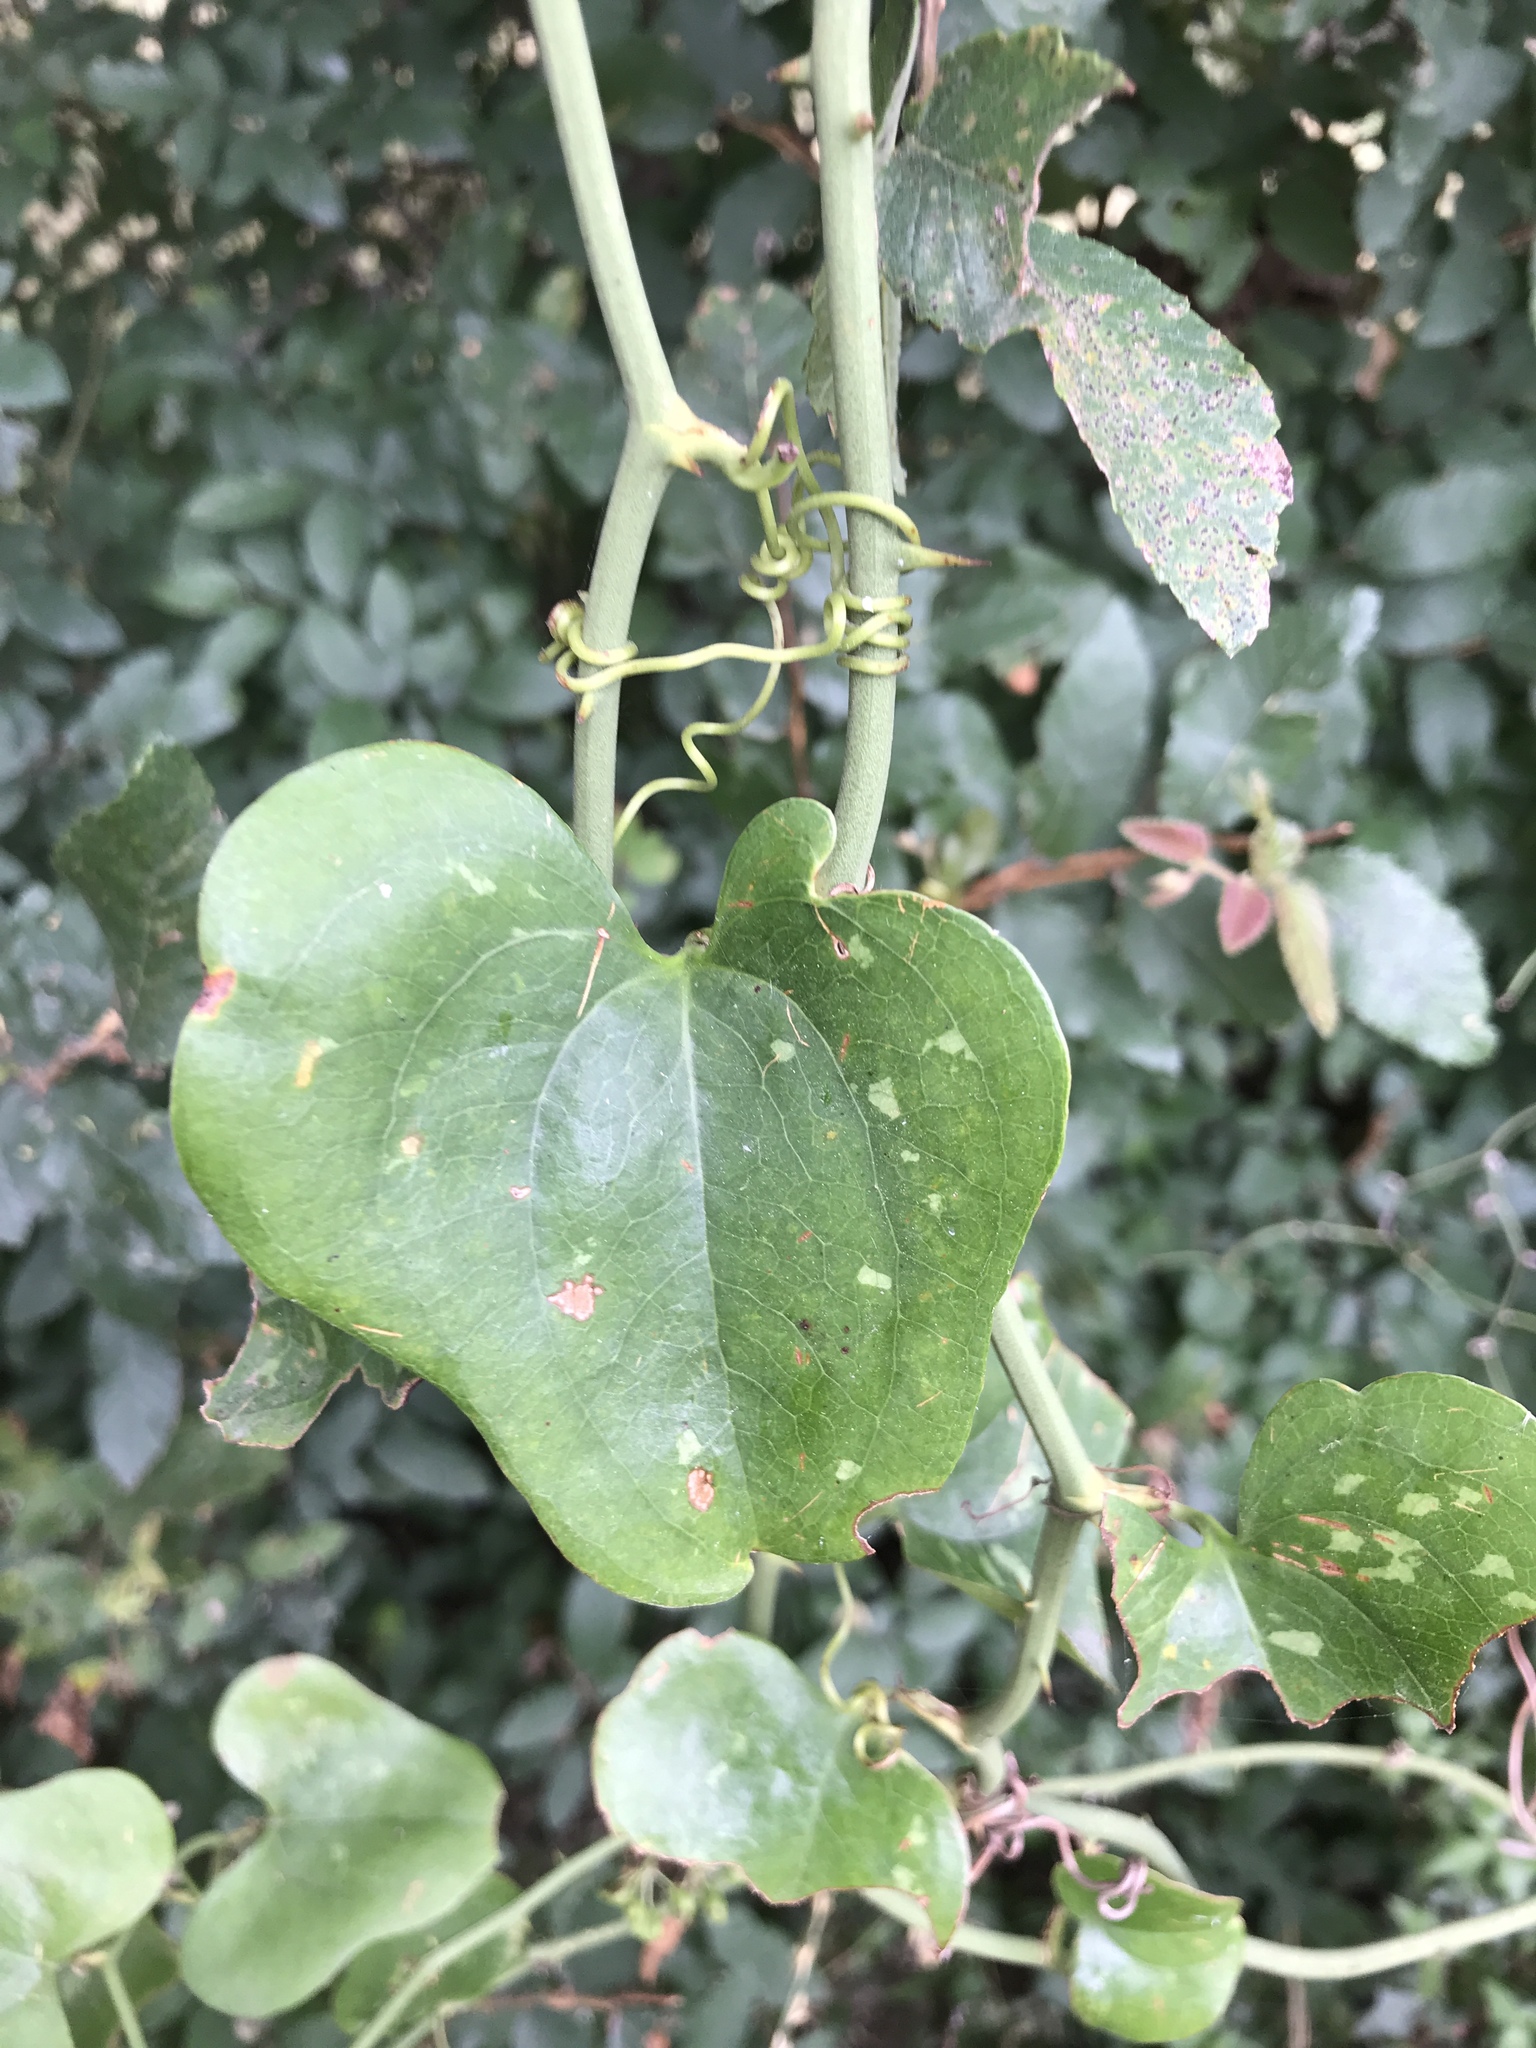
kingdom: Plantae
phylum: Tracheophyta
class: Liliopsida
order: Liliales
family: Smilacaceae
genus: Smilax
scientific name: Smilax bona-nox
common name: Catbrier
